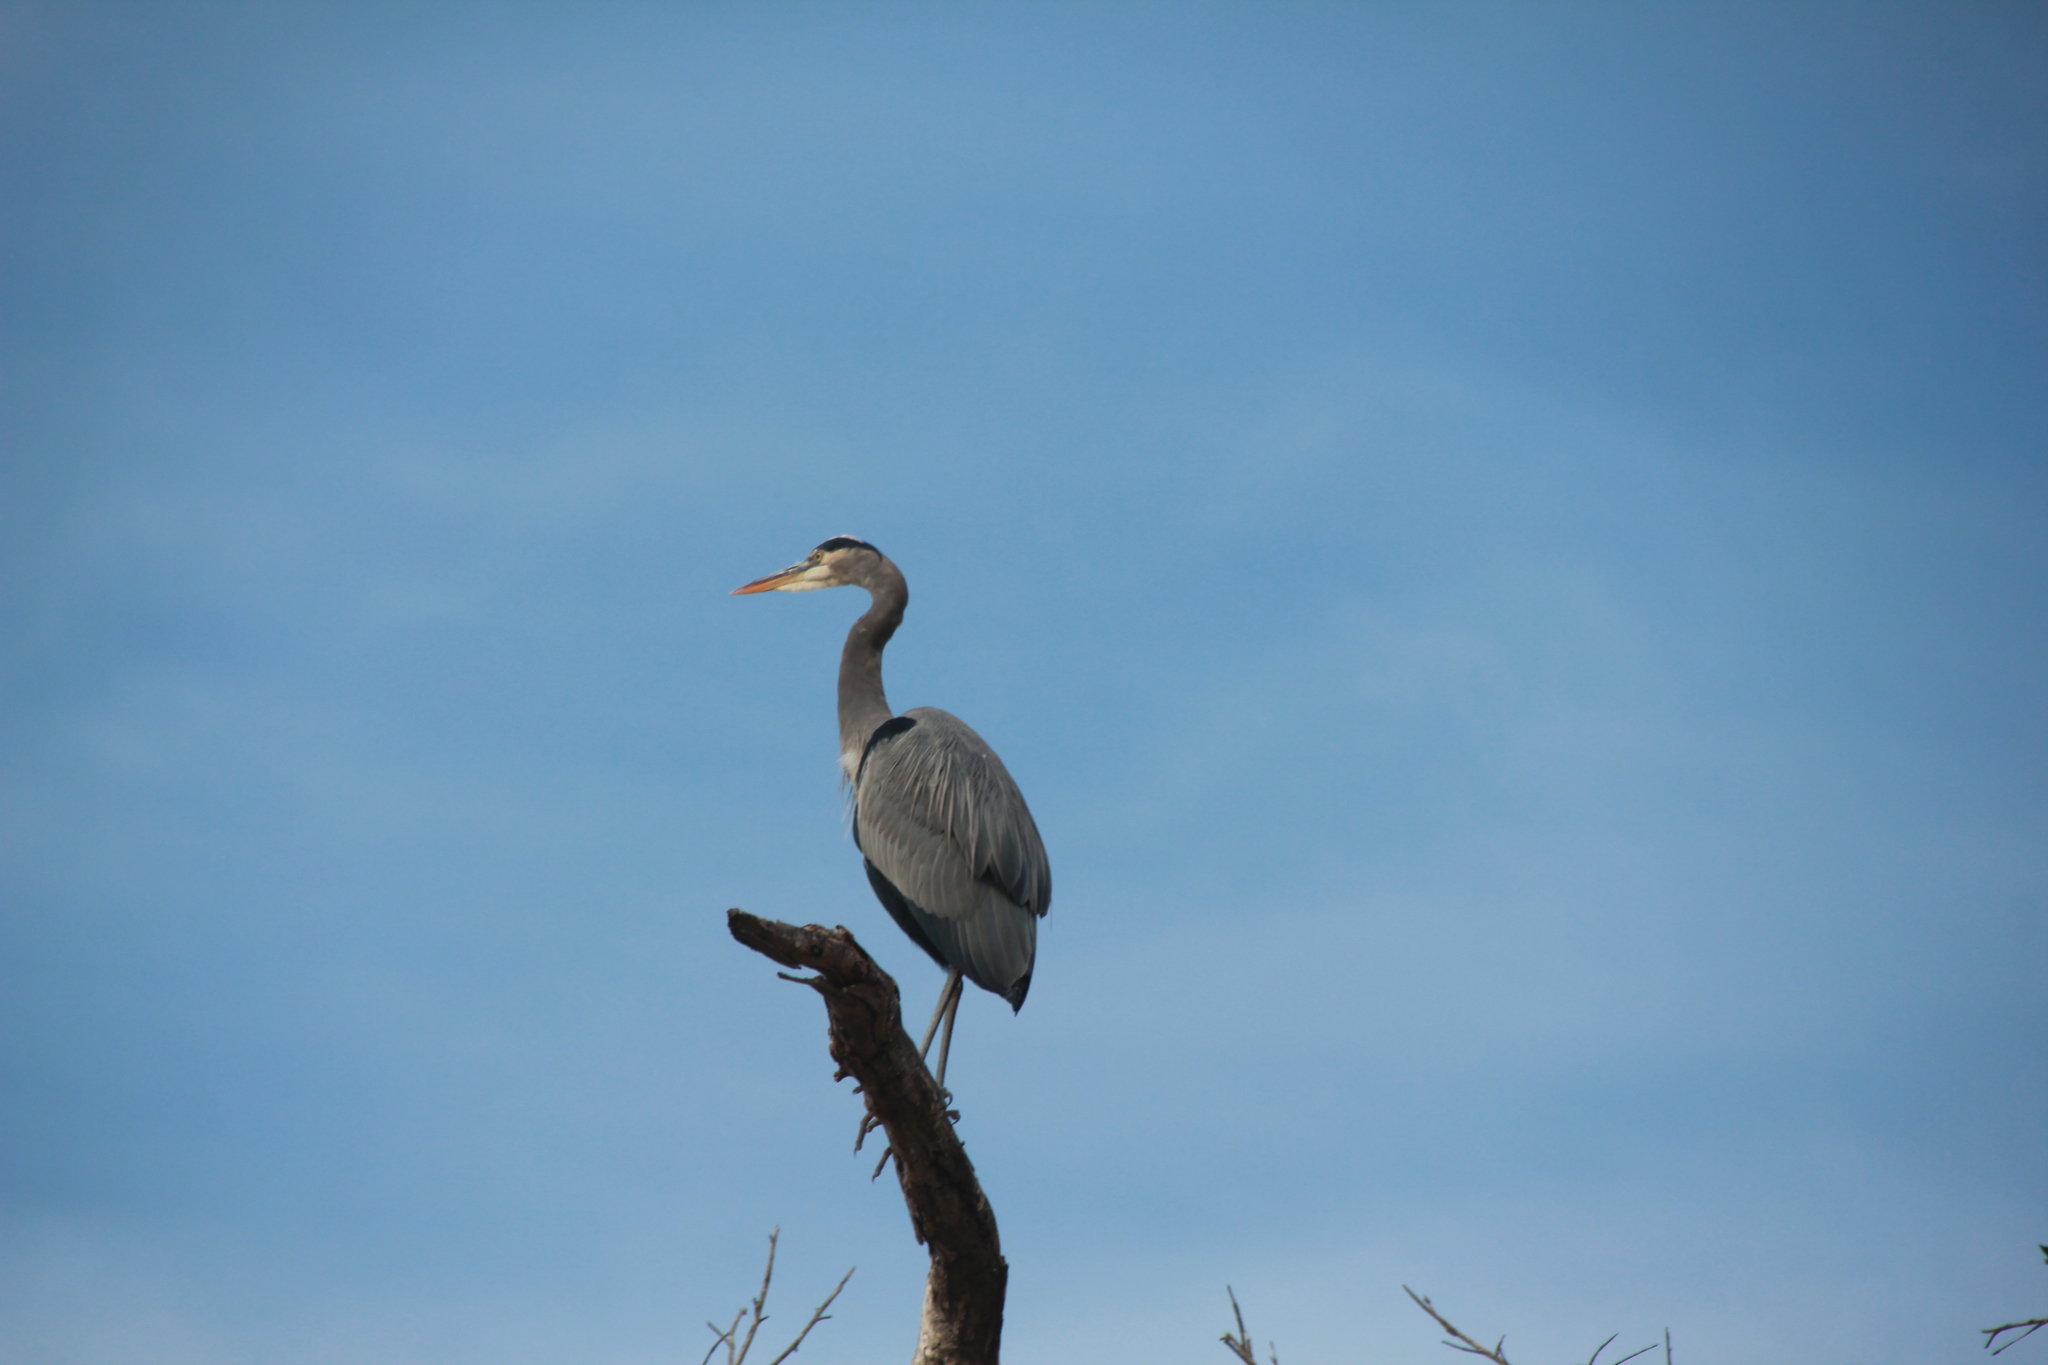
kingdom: Animalia
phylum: Chordata
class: Aves
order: Pelecaniformes
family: Ardeidae
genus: Ardea
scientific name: Ardea herodias
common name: Great blue heron
